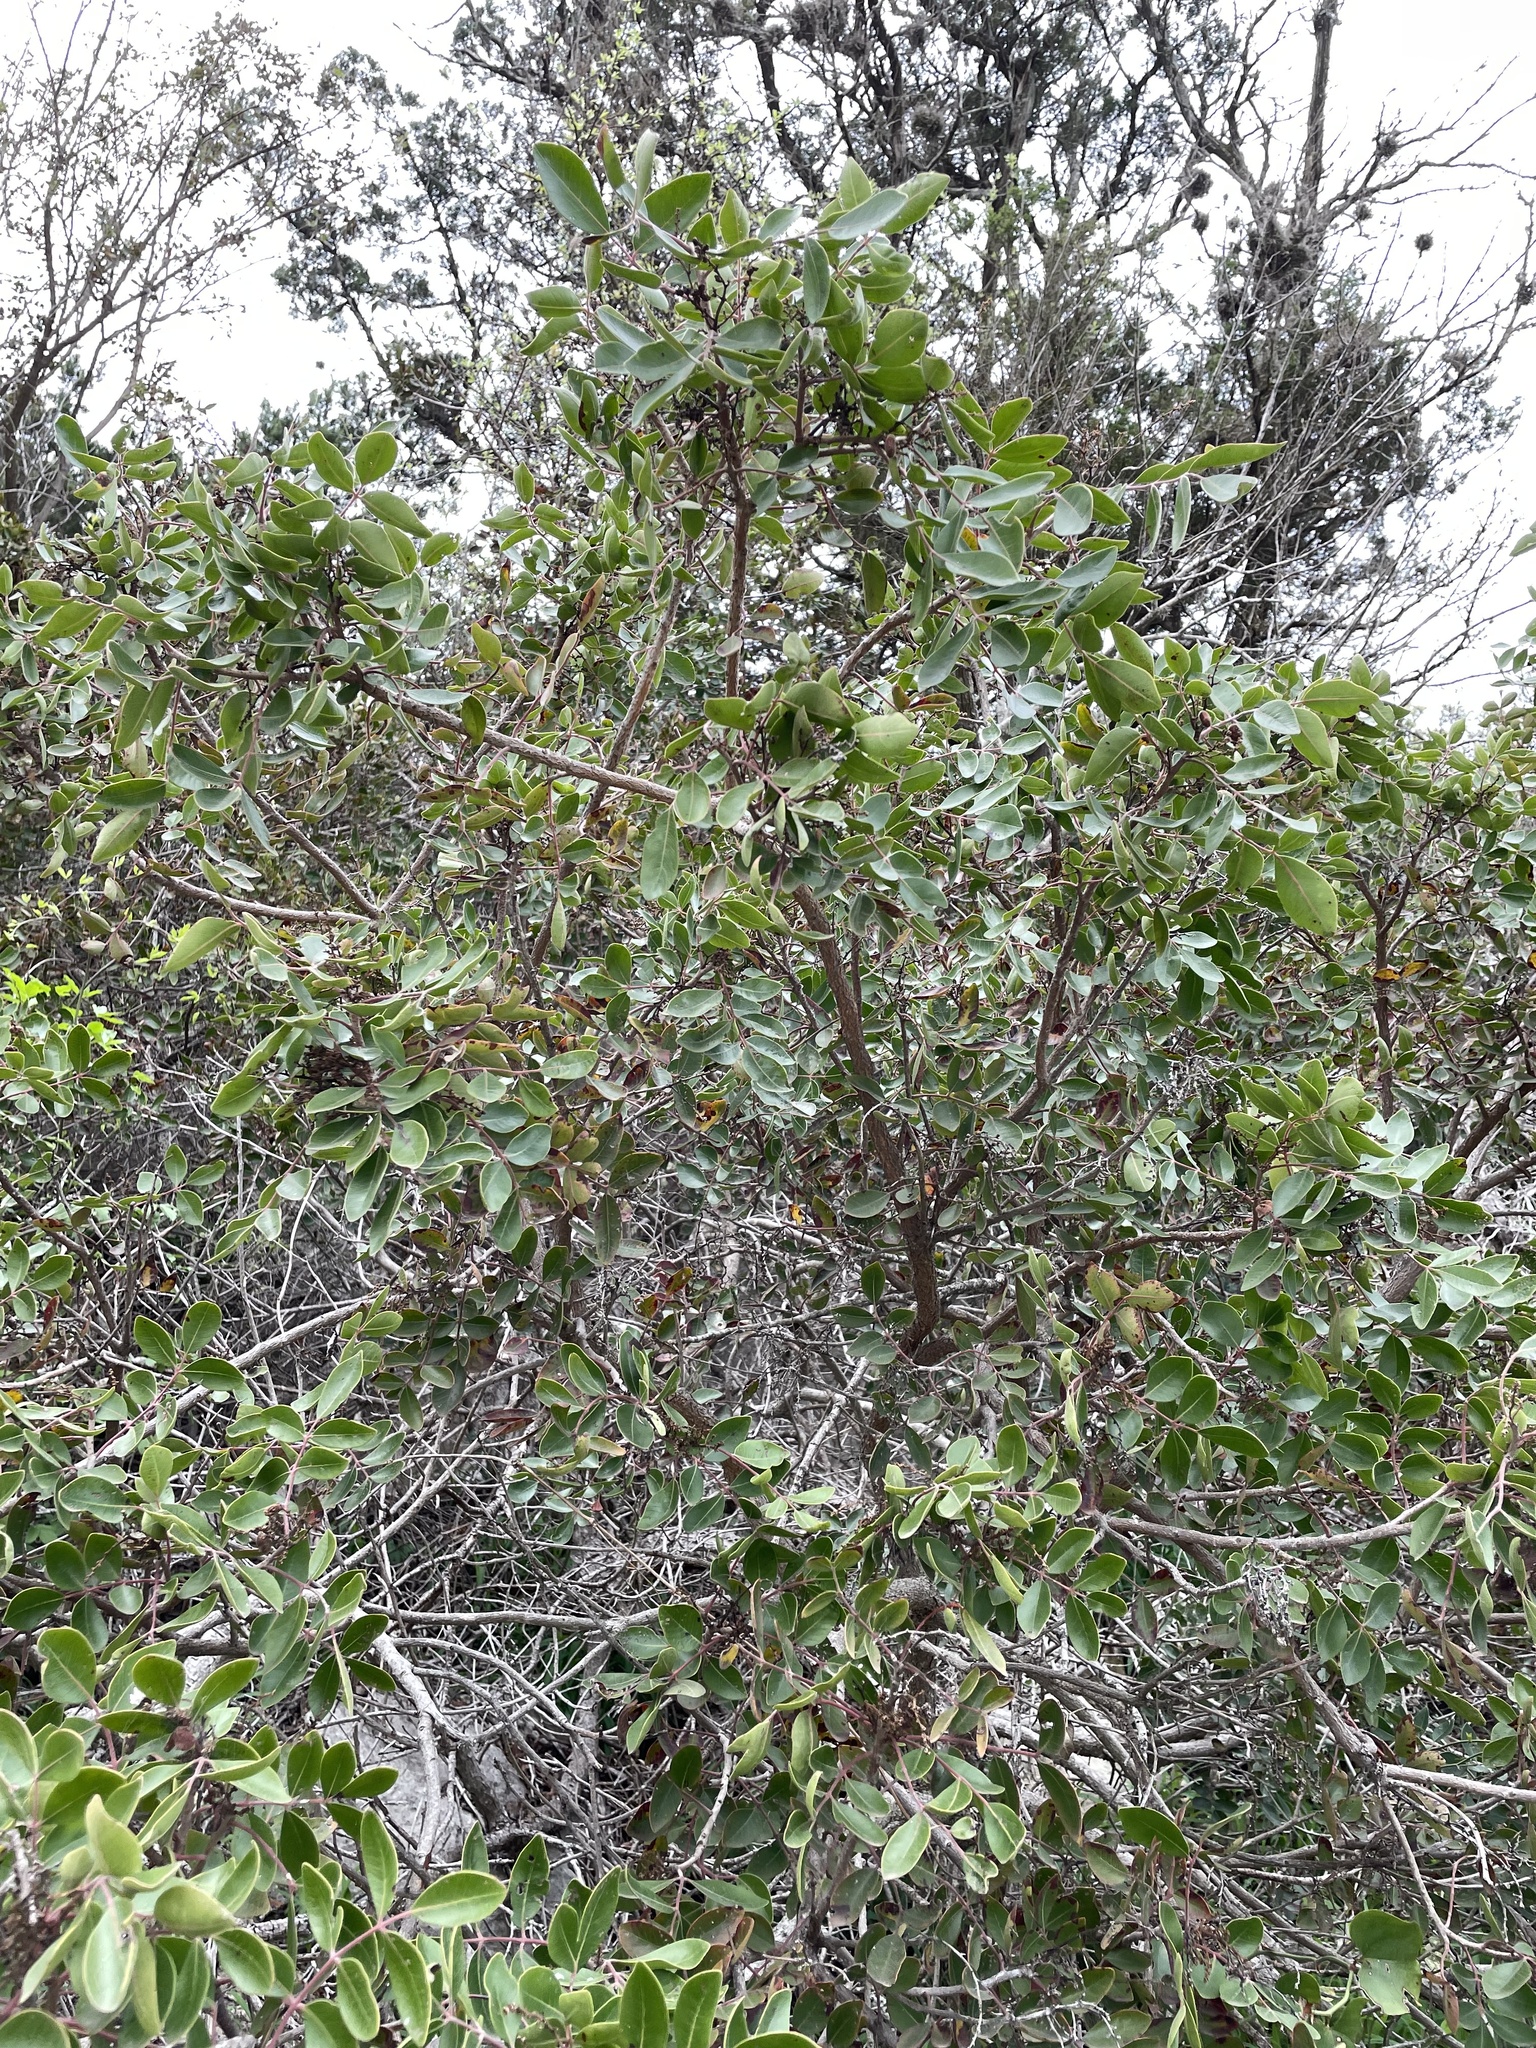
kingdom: Plantae
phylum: Tracheophyta
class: Magnoliopsida
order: Sapindales
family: Anacardiaceae
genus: Rhus
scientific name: Rhus virens
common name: Evergreen sumac
